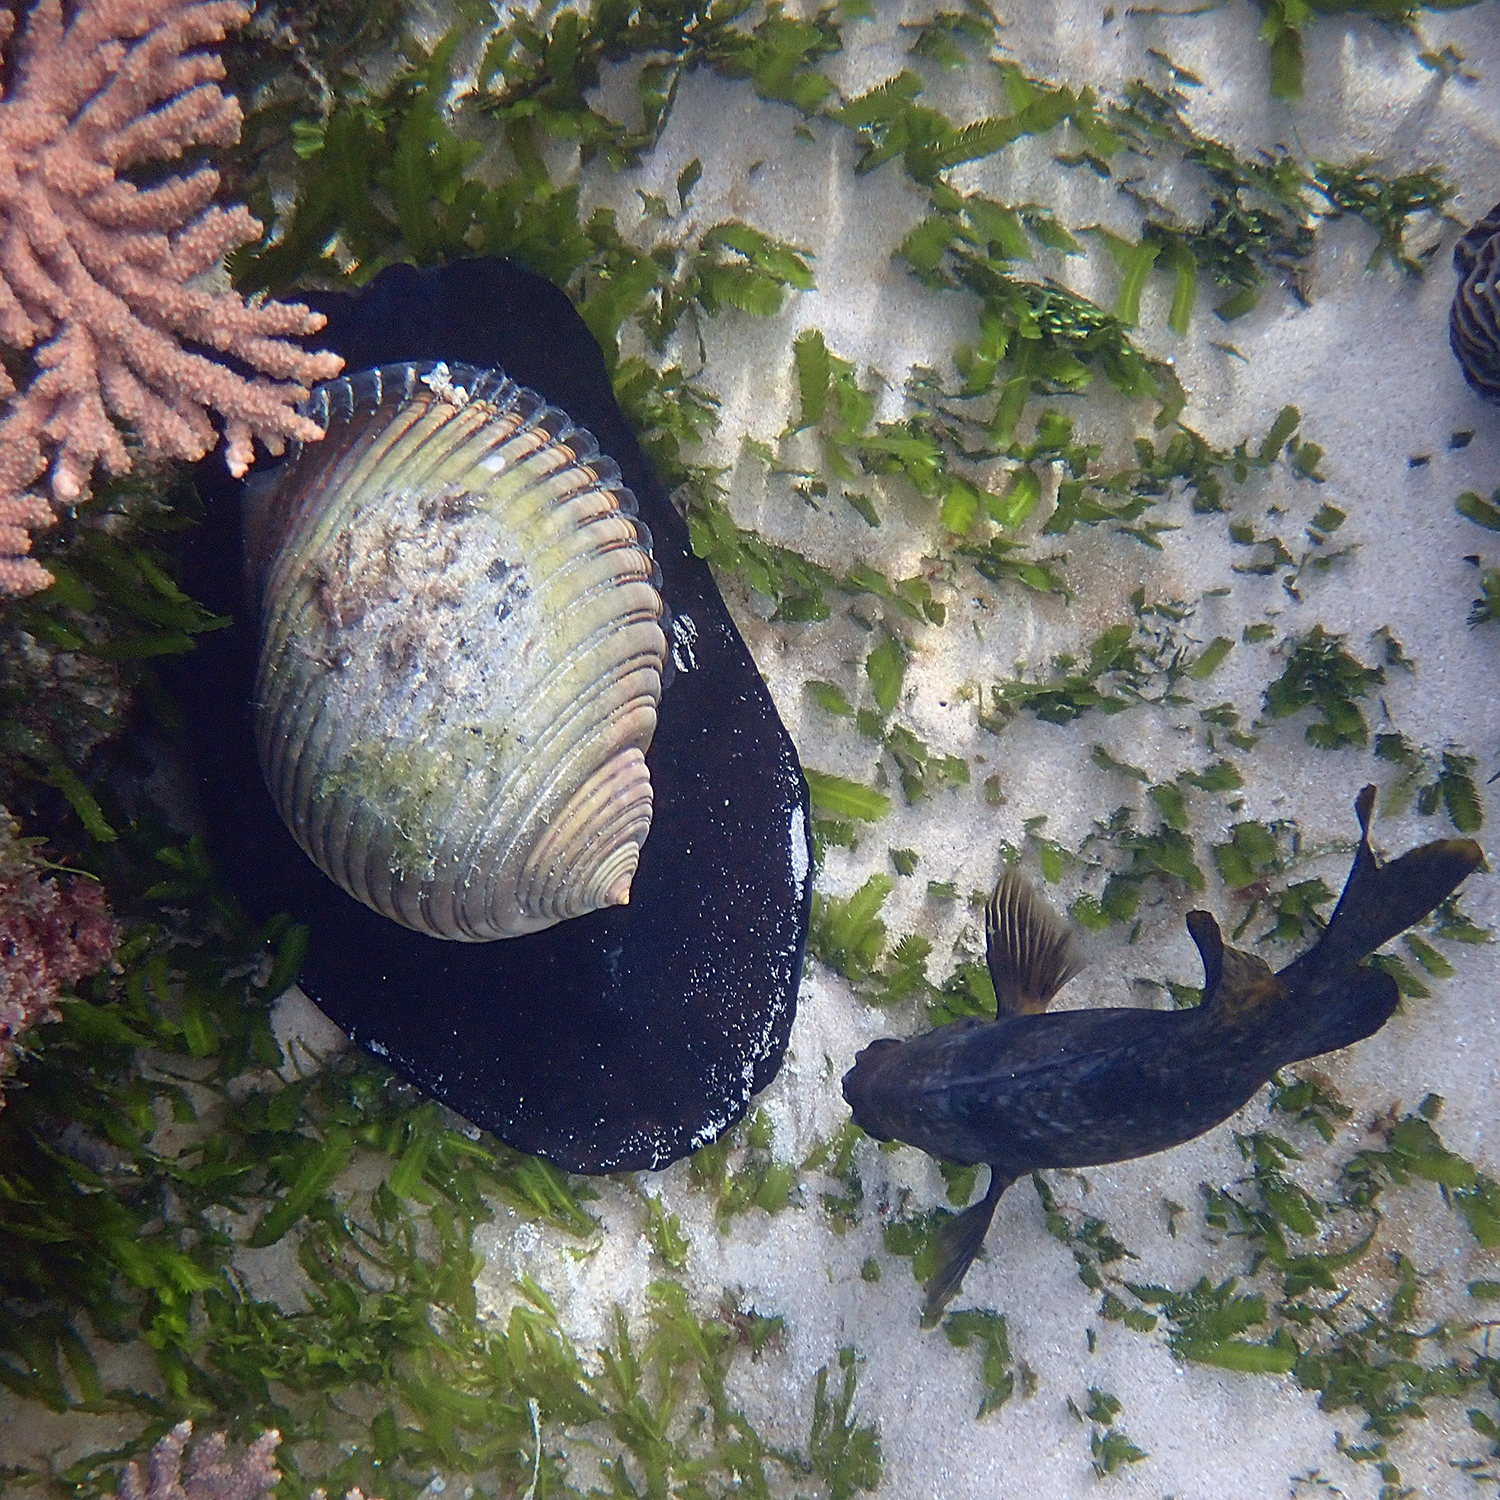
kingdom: Animalia
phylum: Mollusca
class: Gastropoda
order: Littorinimorpha
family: Tonnidae
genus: Tonna
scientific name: Tonna melanostoma
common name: Black mouthed tun
